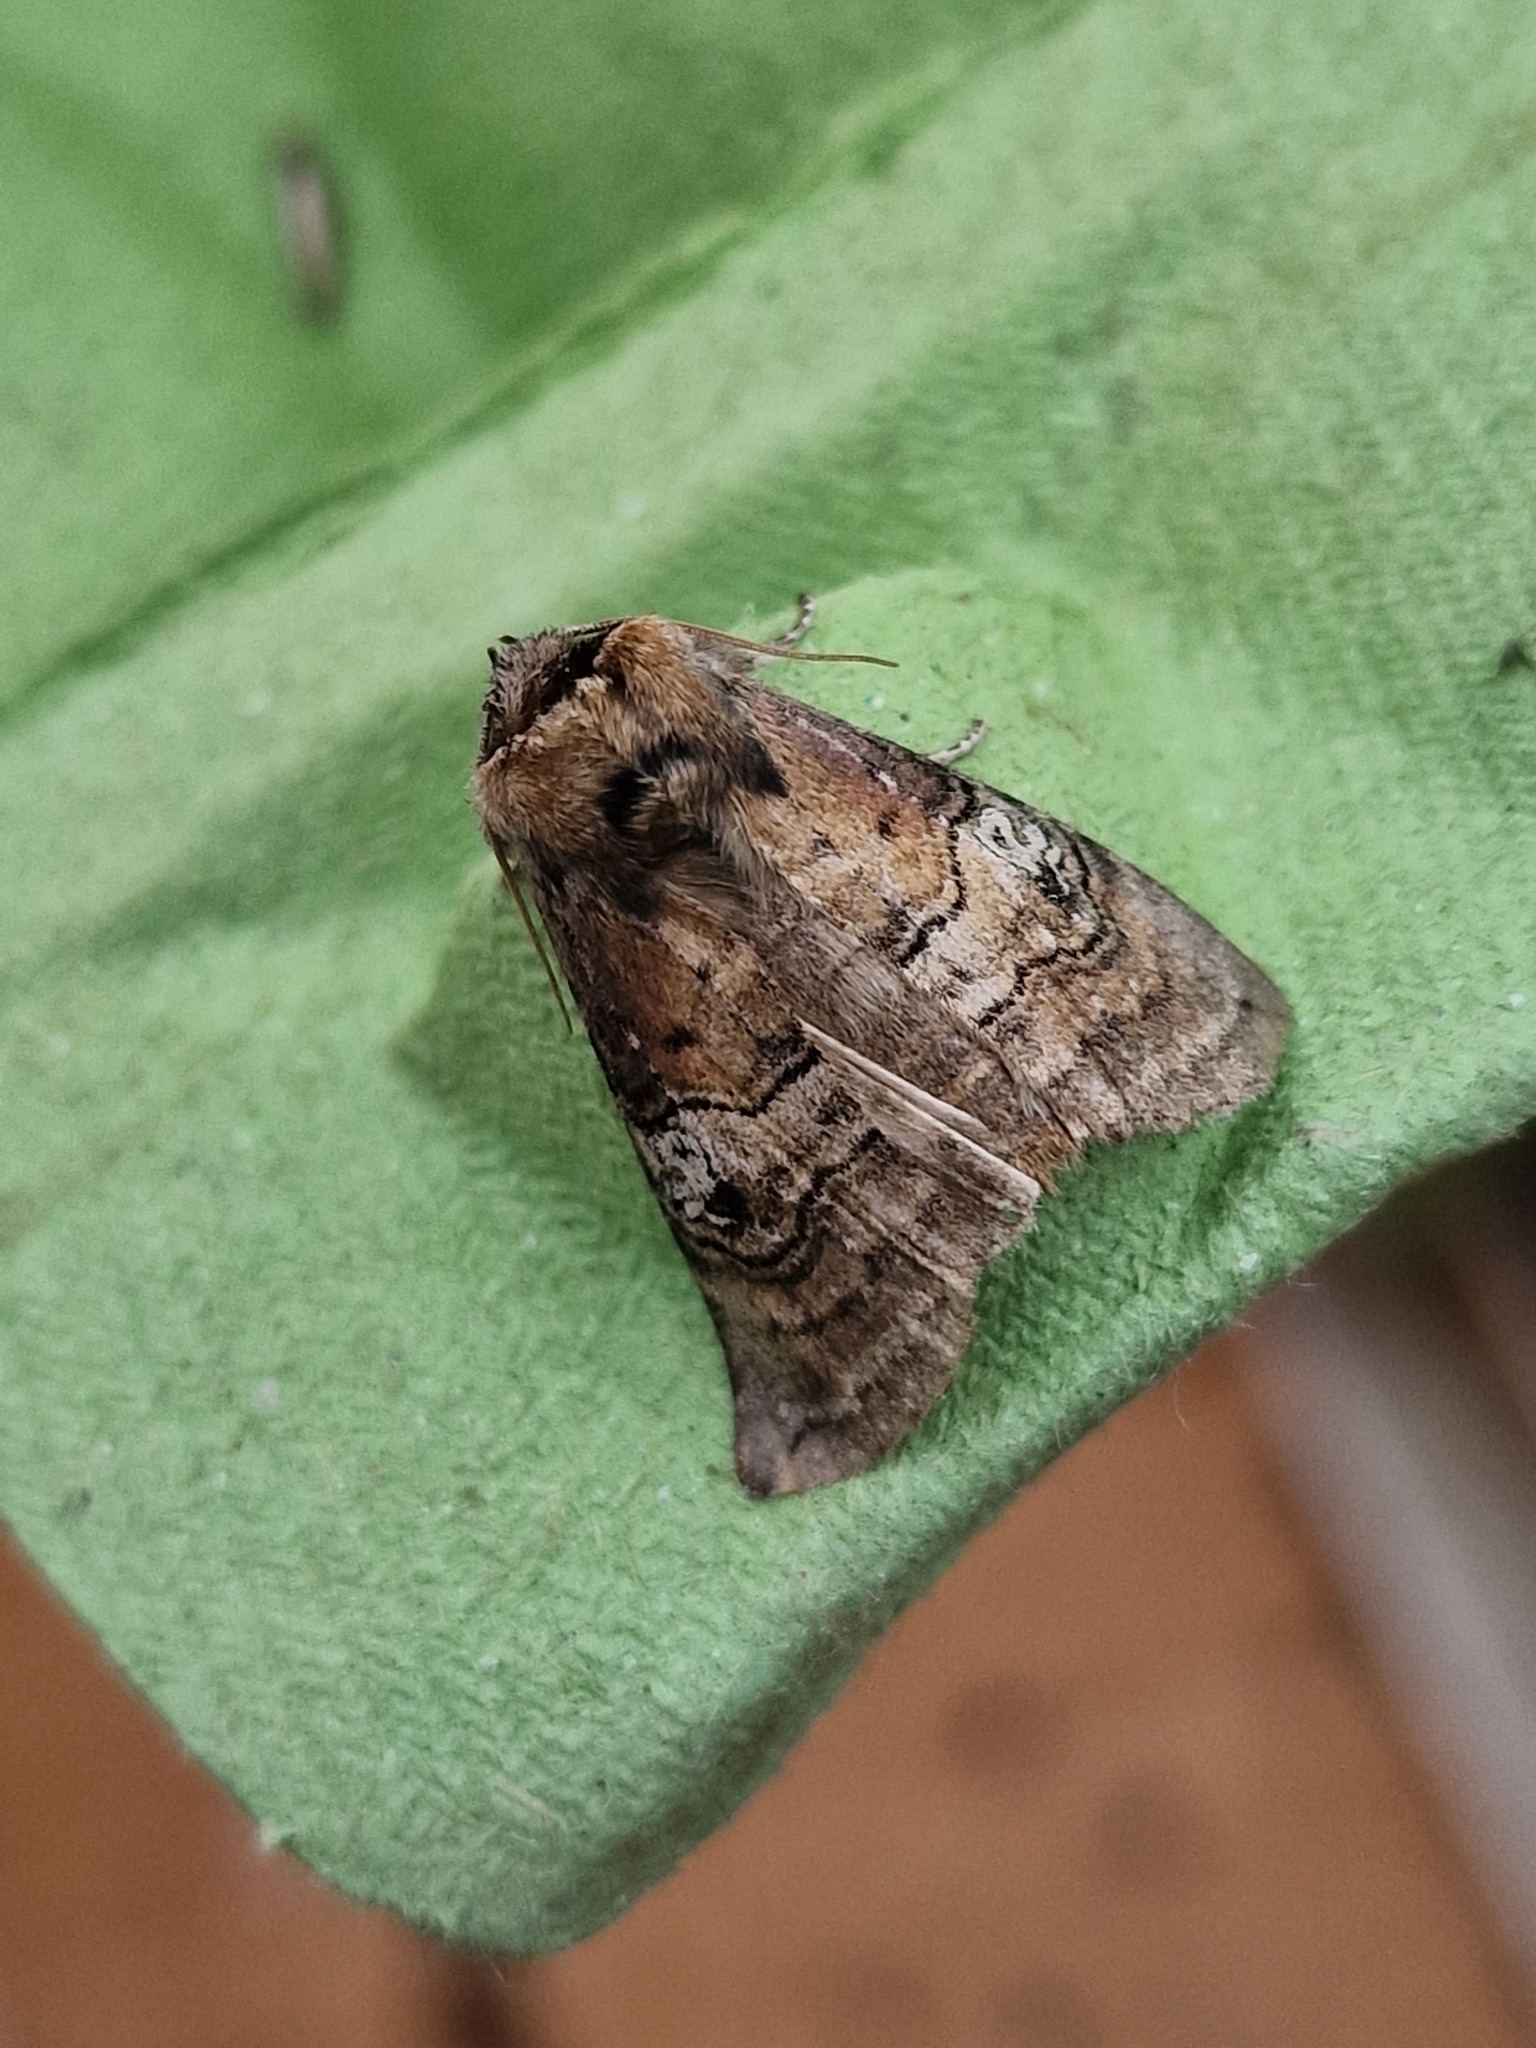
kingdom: Animalia
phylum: Arthropoda
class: Insecta
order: Lepidoptera
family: Drepanidae
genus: Tethea
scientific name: Tethea ocularis
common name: Figure of eighty
